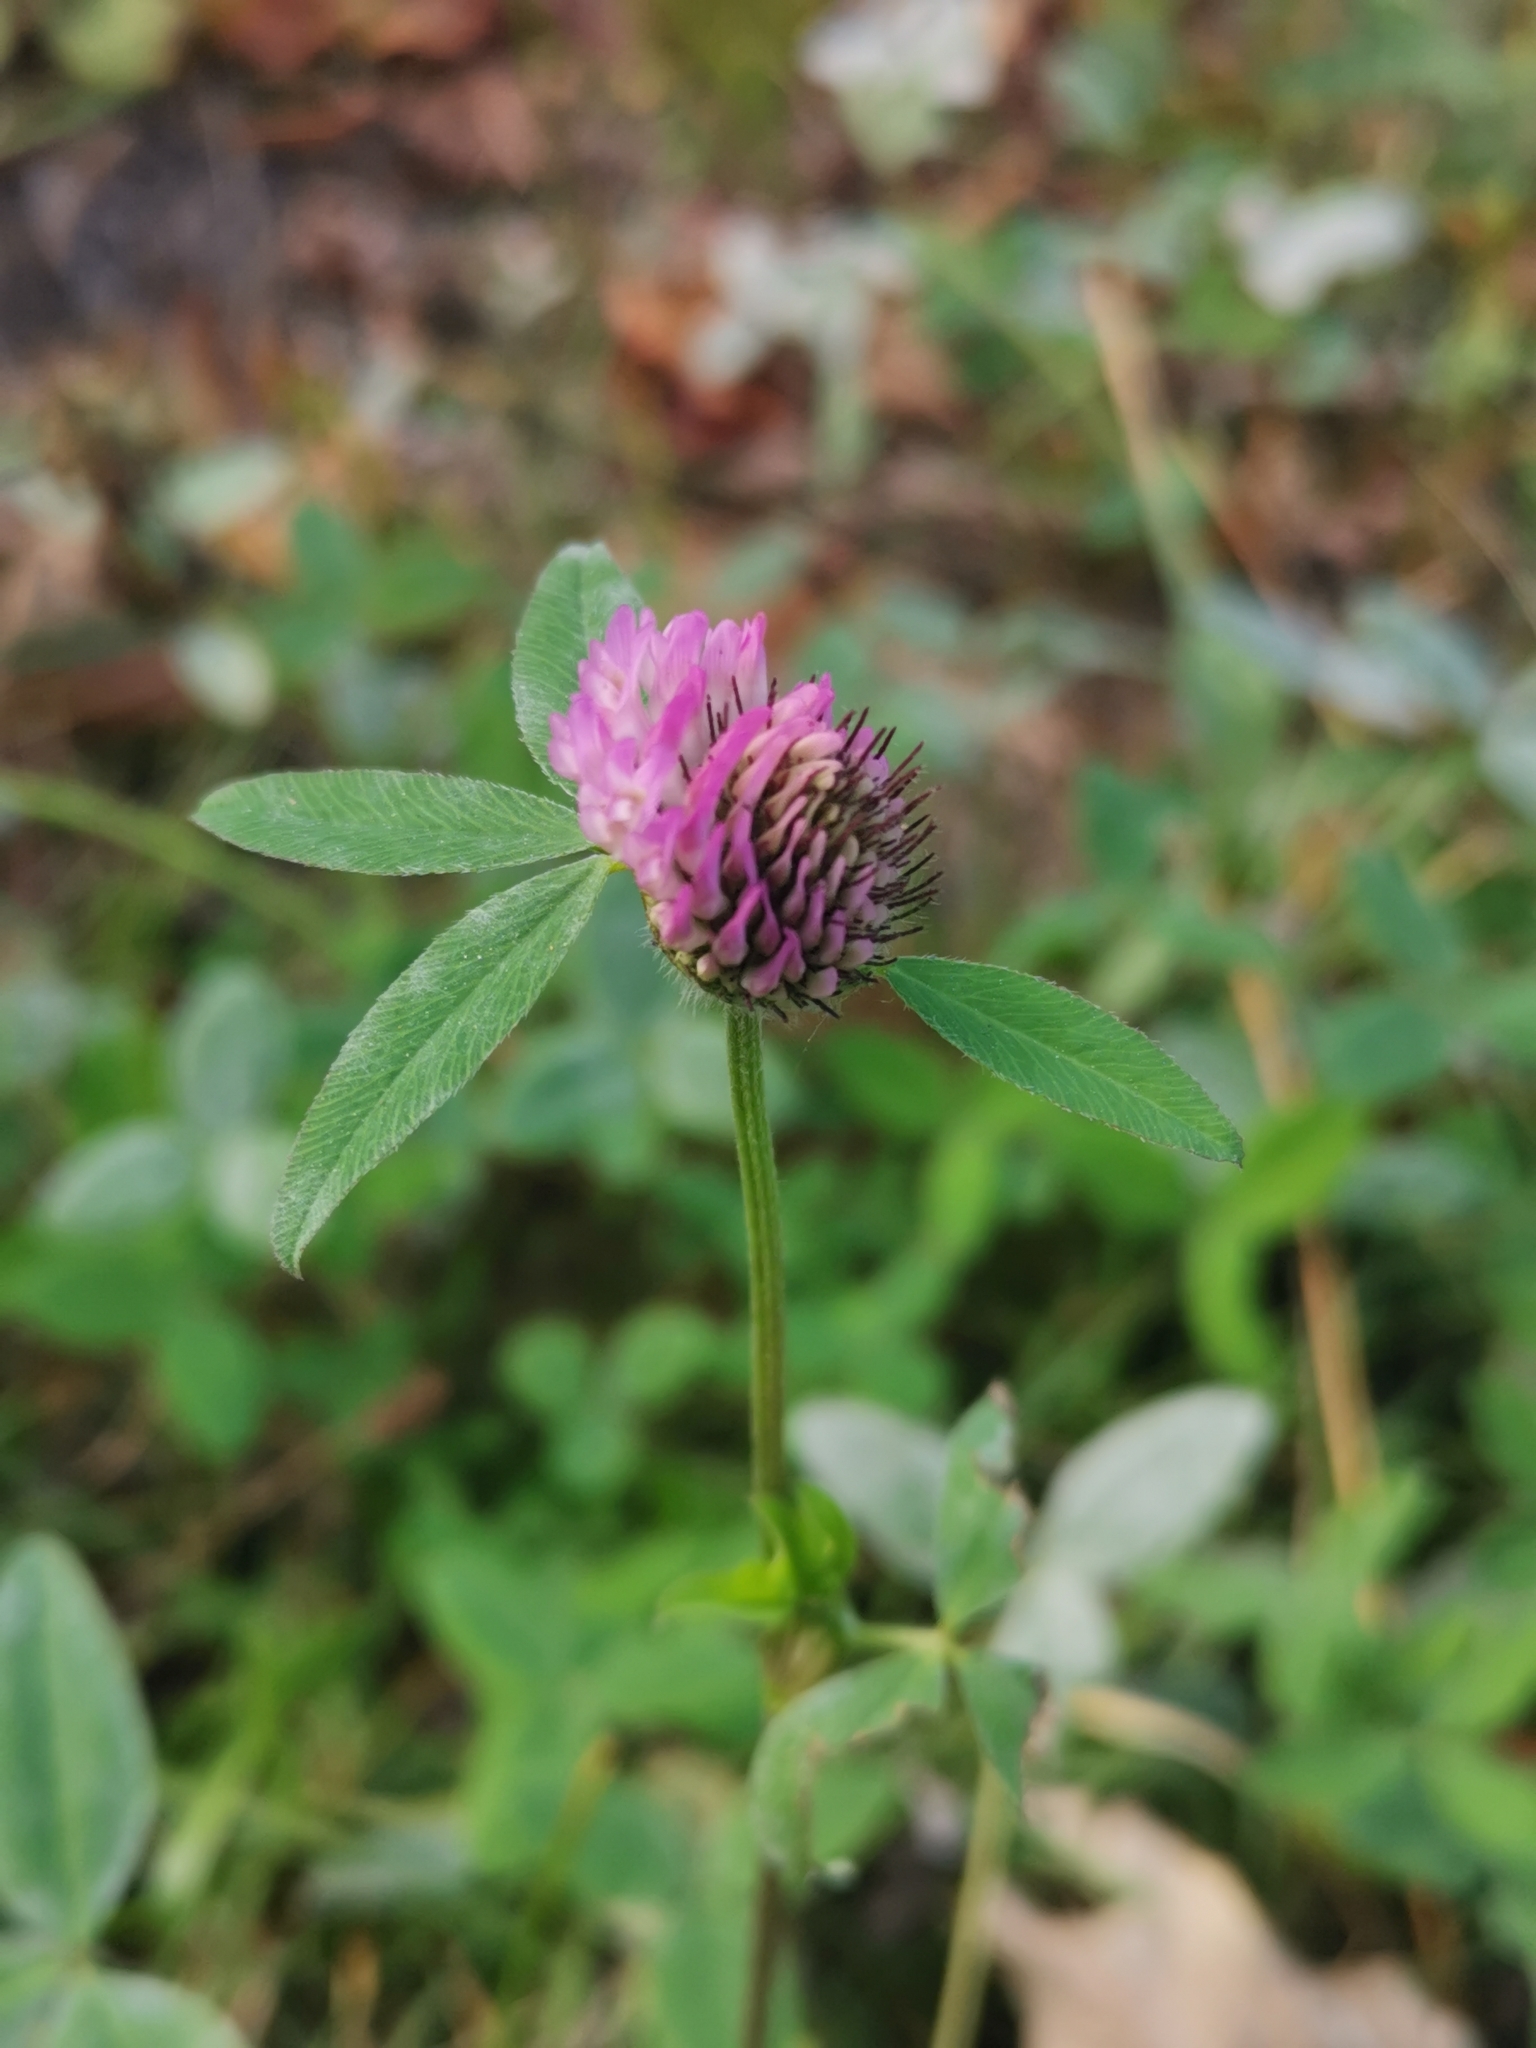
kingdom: Plantae
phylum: Tracheophyta
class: Magnoliopsida
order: Fabales
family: Fabaceae
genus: Trifolium
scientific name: Trifolium pratense
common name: Red clover
